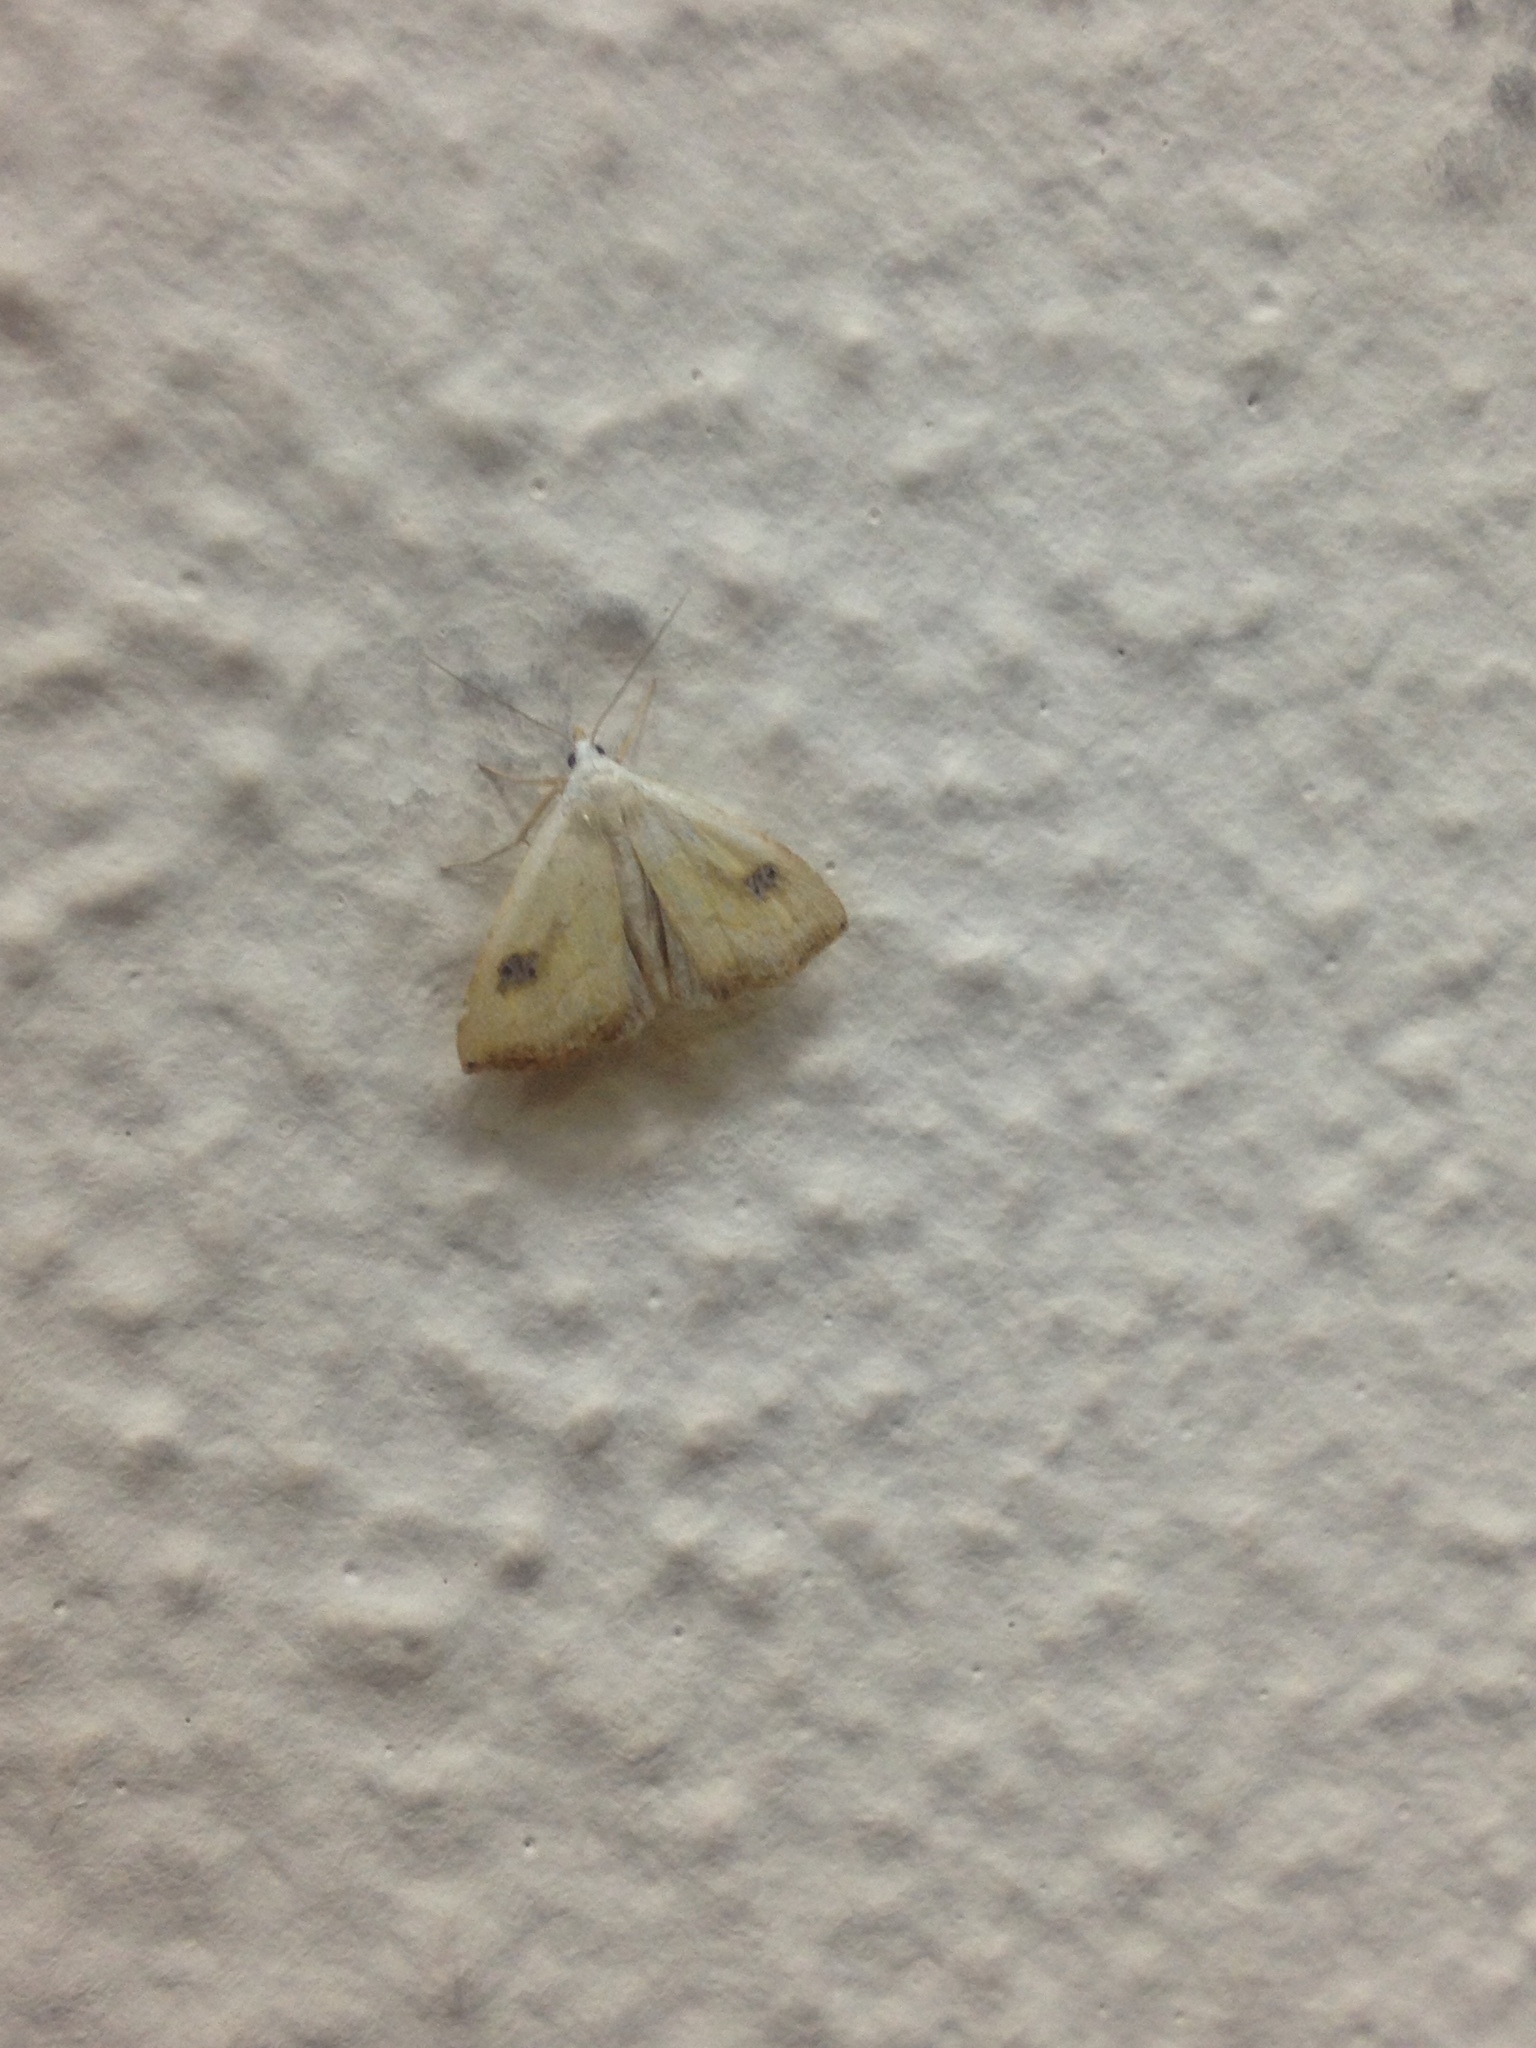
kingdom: Animalia
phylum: Arthropoda
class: Insecta
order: Lepidoptera
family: Erebidae
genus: Rivula
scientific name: Rivula sericealis
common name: Straw dot
